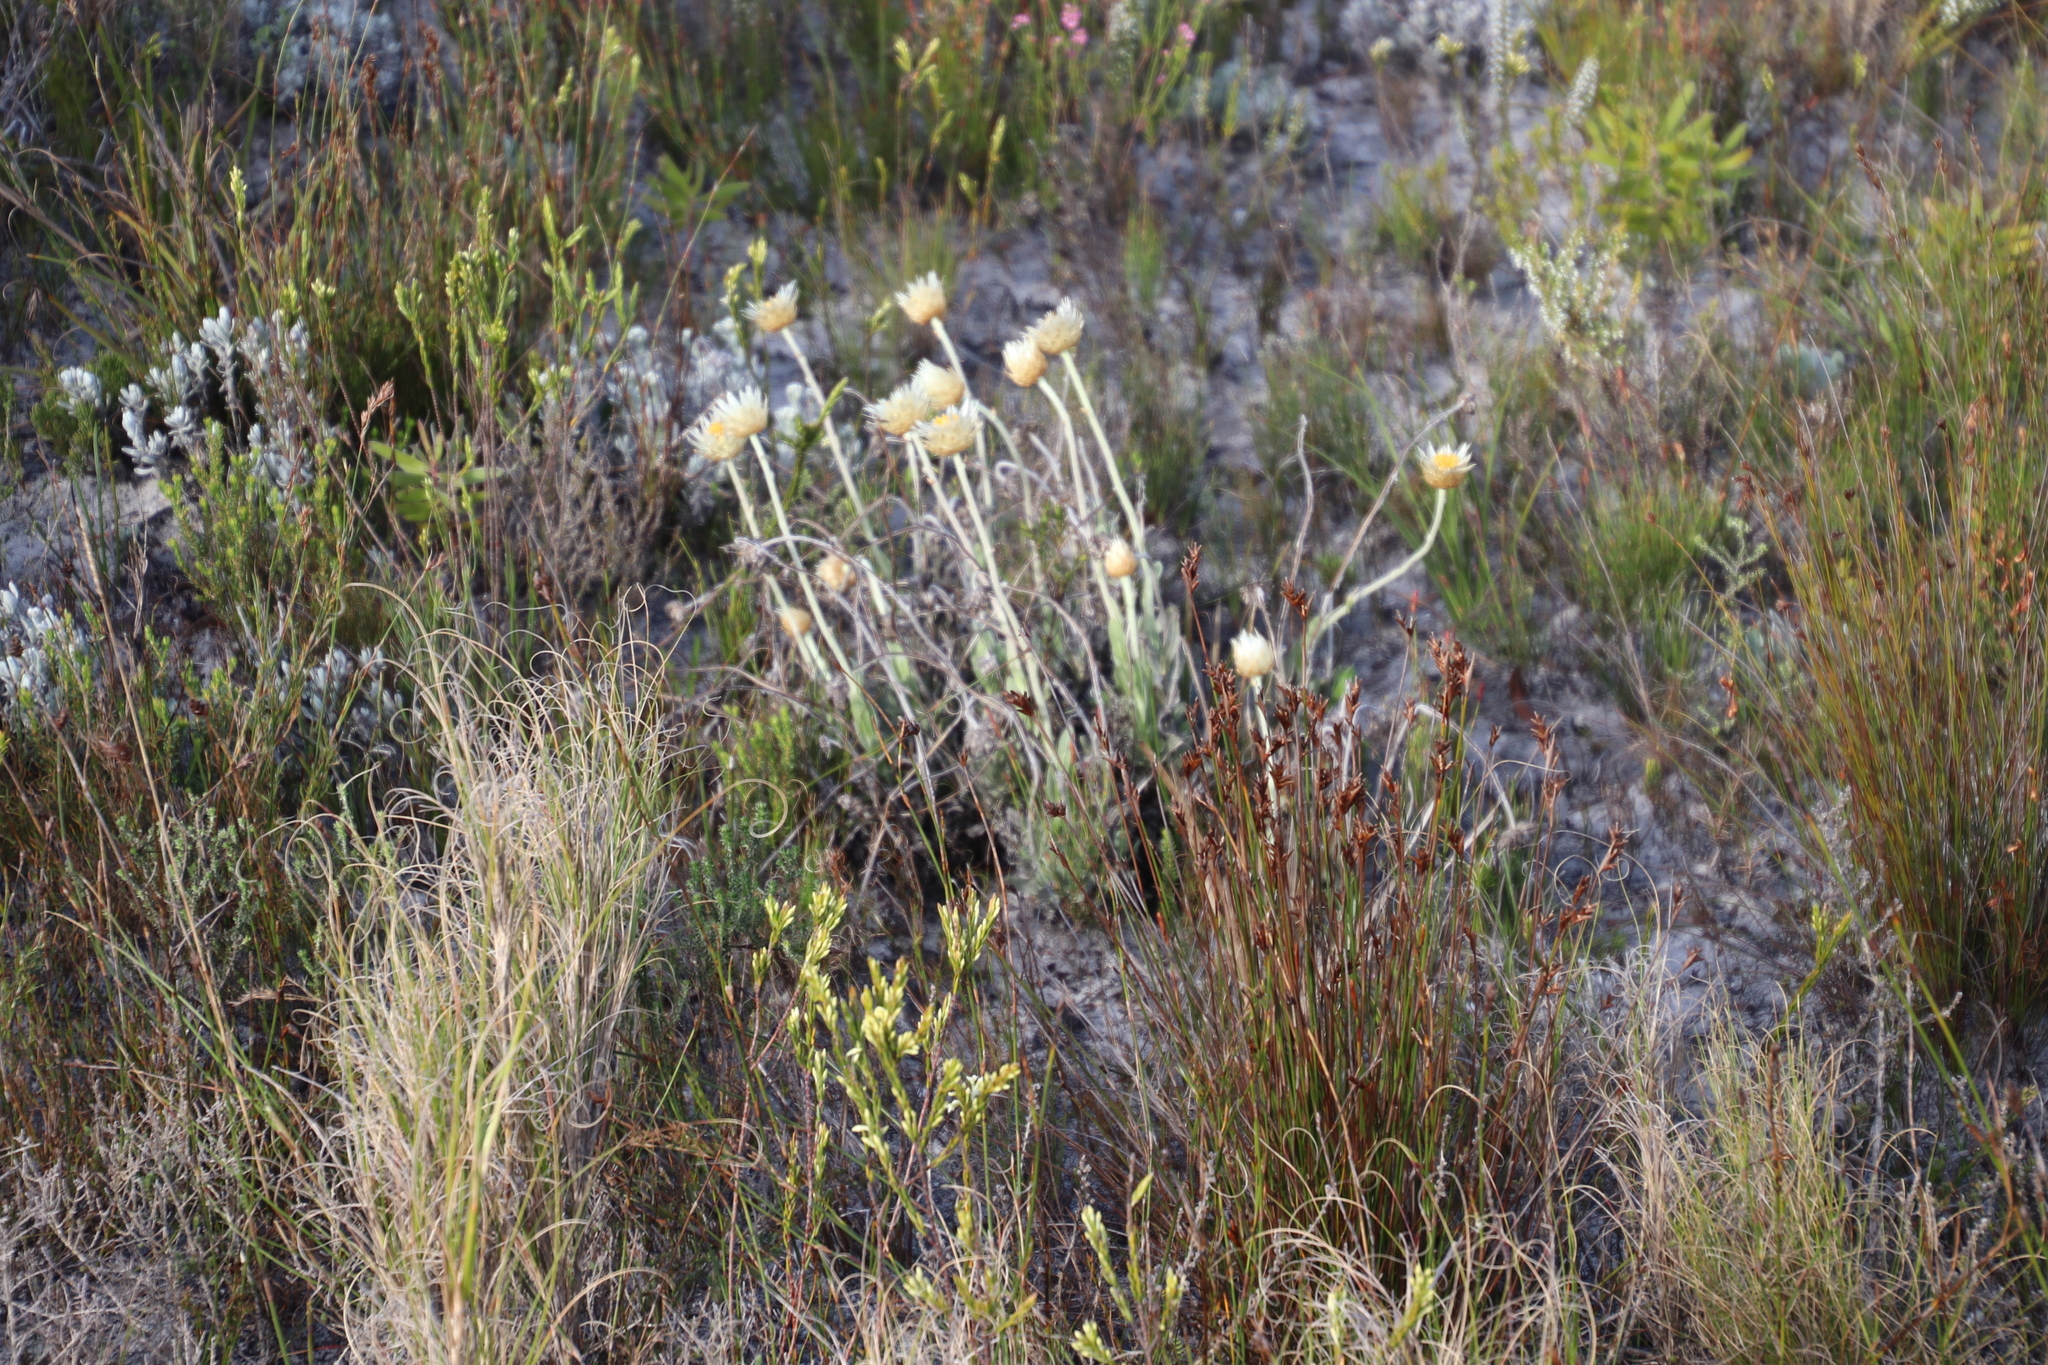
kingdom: Plantae
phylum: Tracheophyta
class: Magnoliopsida
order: Asterales
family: Asteraceae
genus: Syncarpha
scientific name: Syncarpha speciosissima
